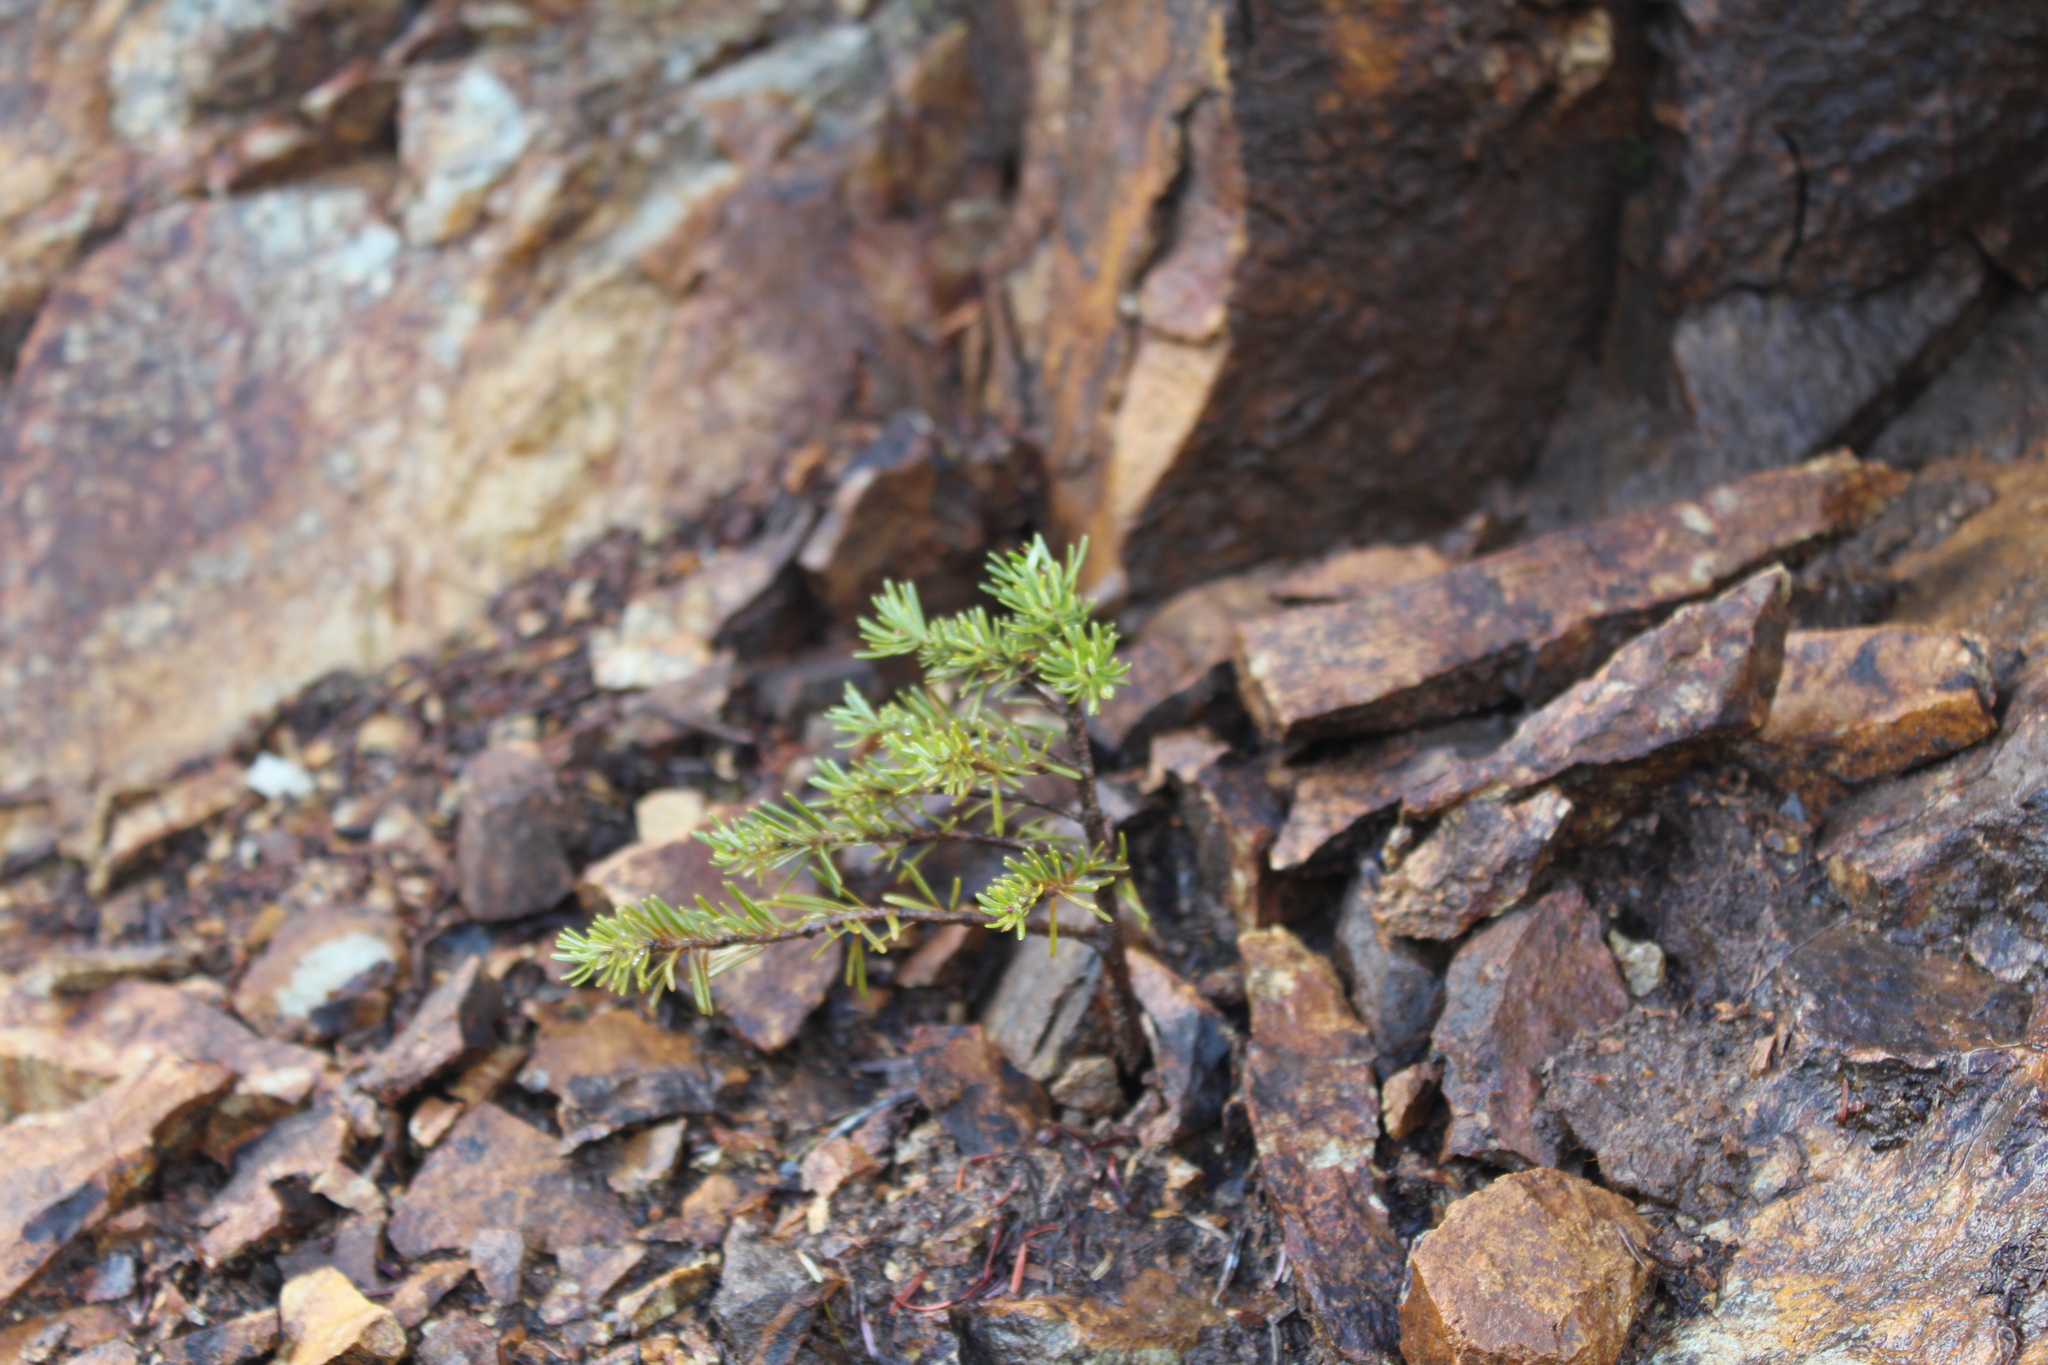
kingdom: Plantae
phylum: Tracheophyta
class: Pinopsida
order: Pinales
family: Pinaceae
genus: Tsuga
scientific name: Tsuga mertensiana
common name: Mountain hemlock
